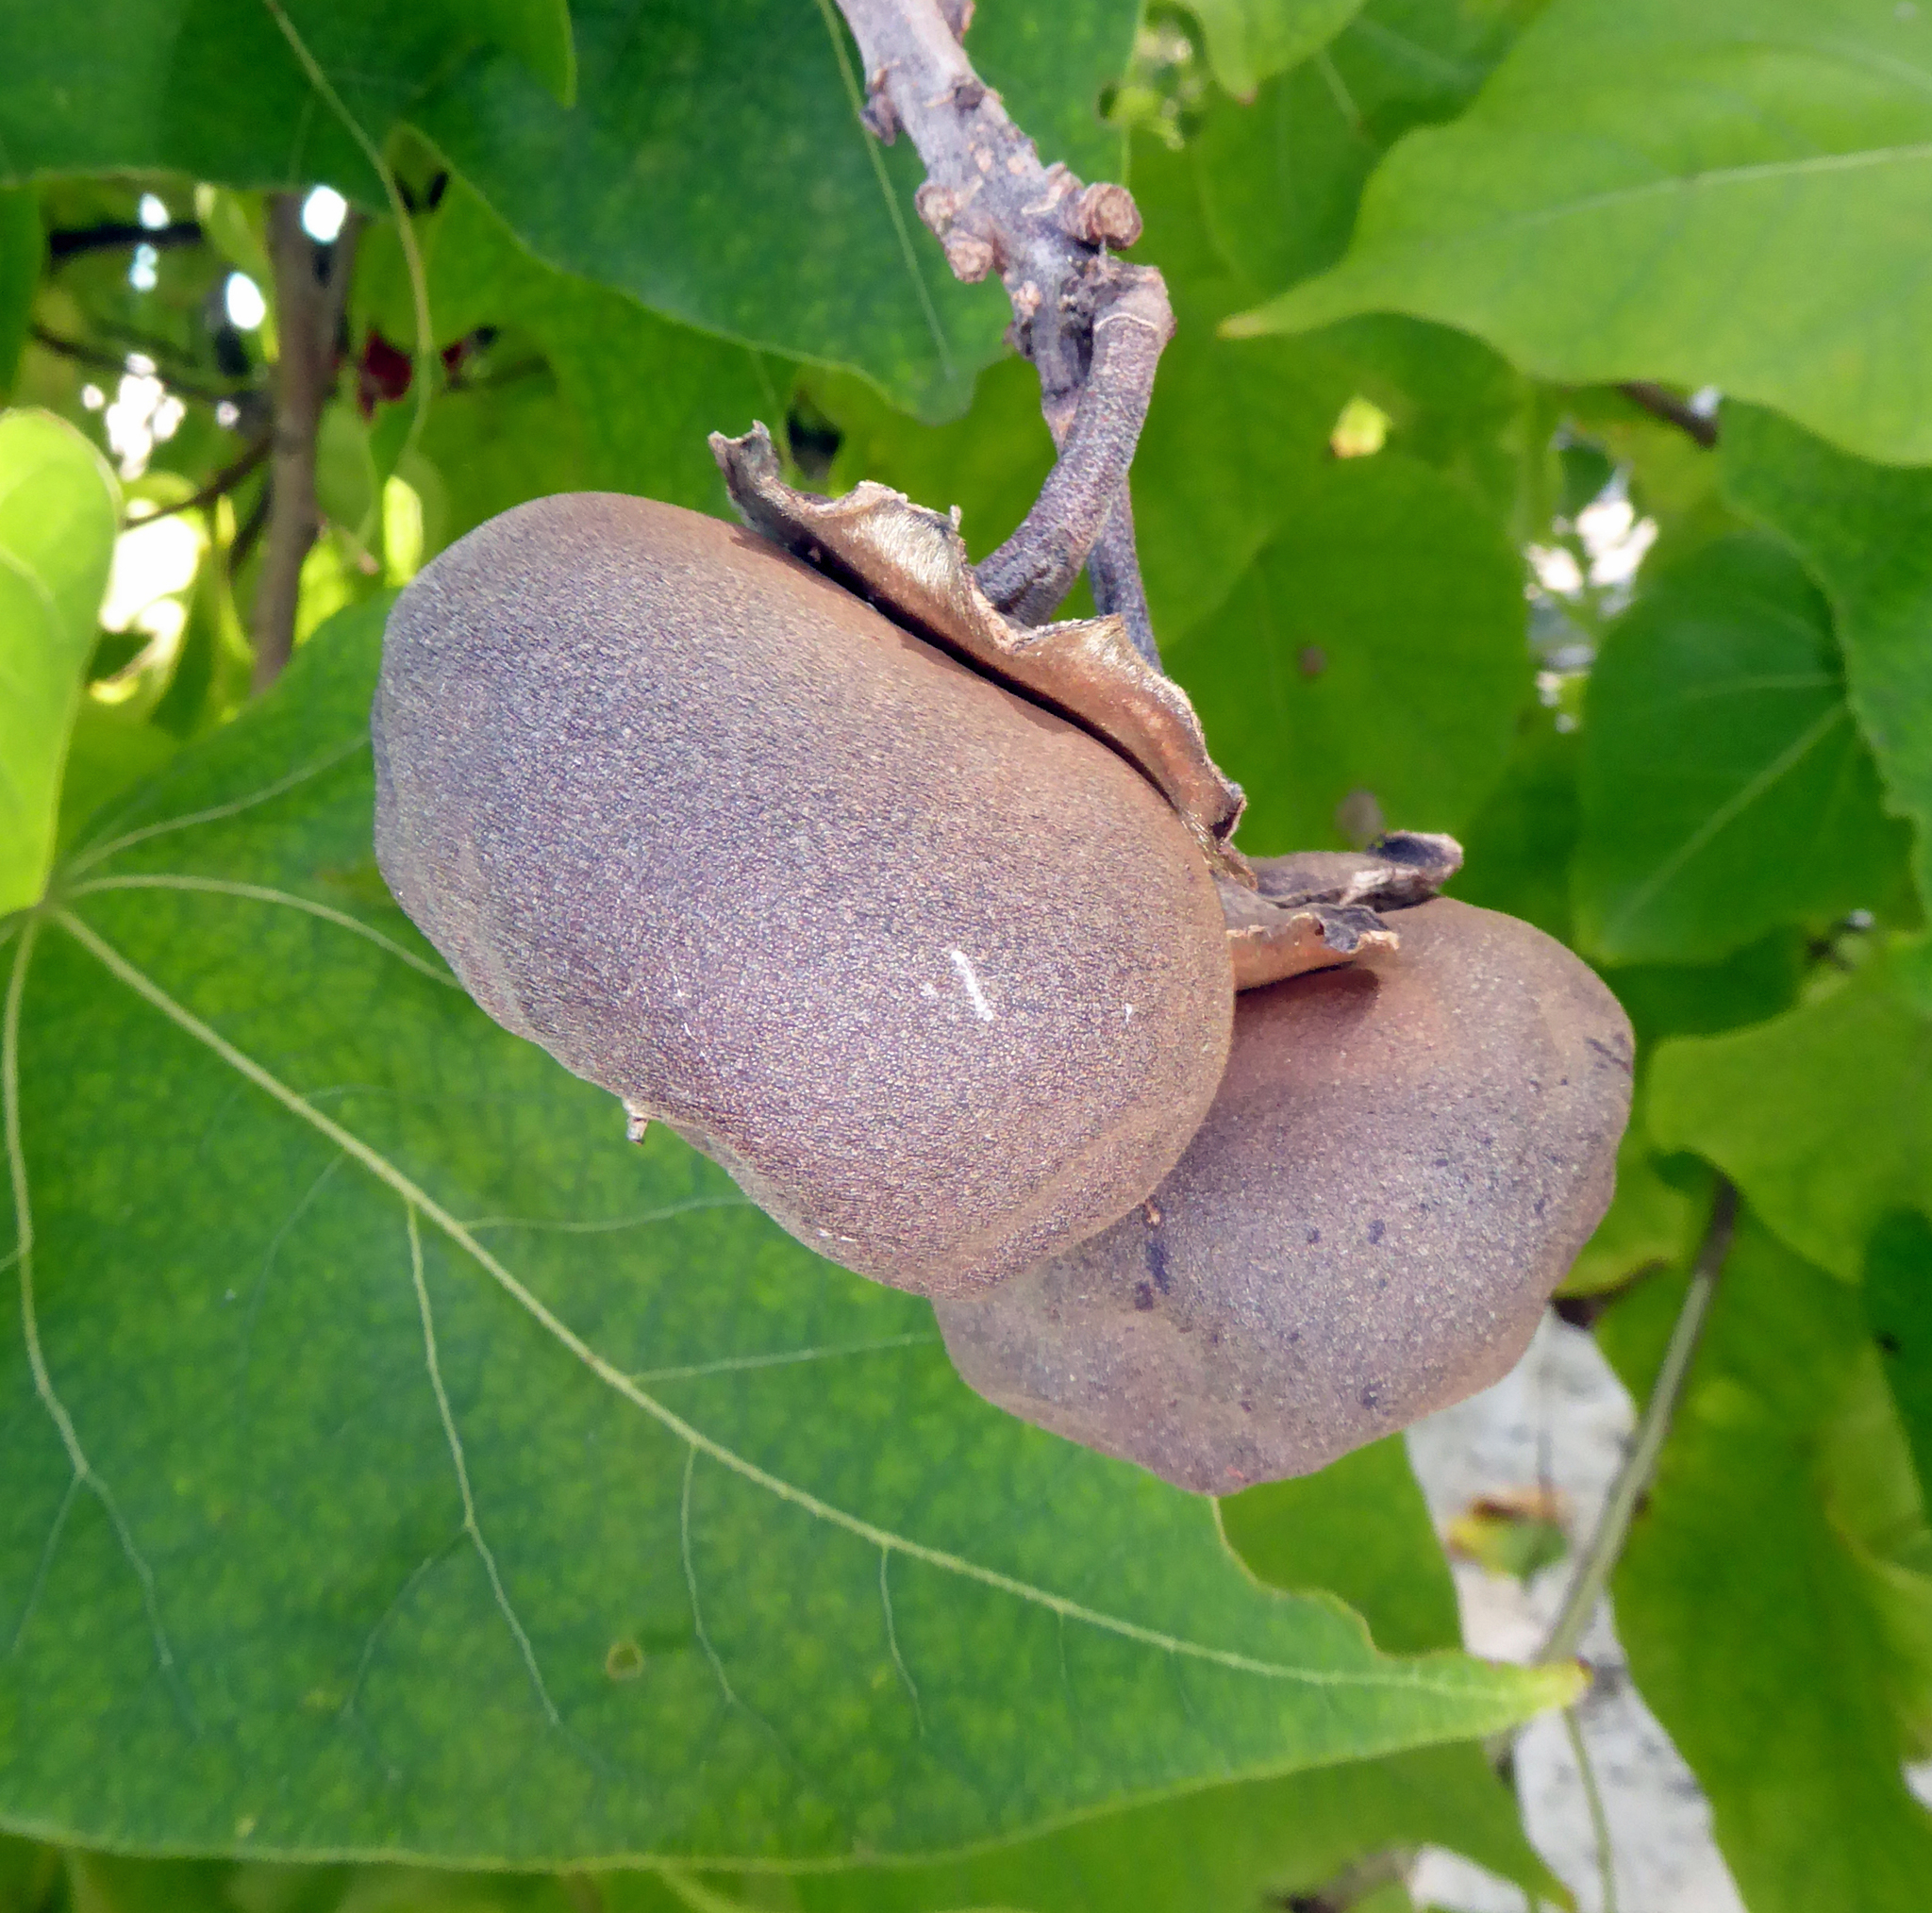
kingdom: Plantae
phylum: Tracheophyta
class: Magnoliopsida
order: Malvales
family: Malvaceae
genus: Thespesia
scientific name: Thespesia populnea
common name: Seaside mahoe
